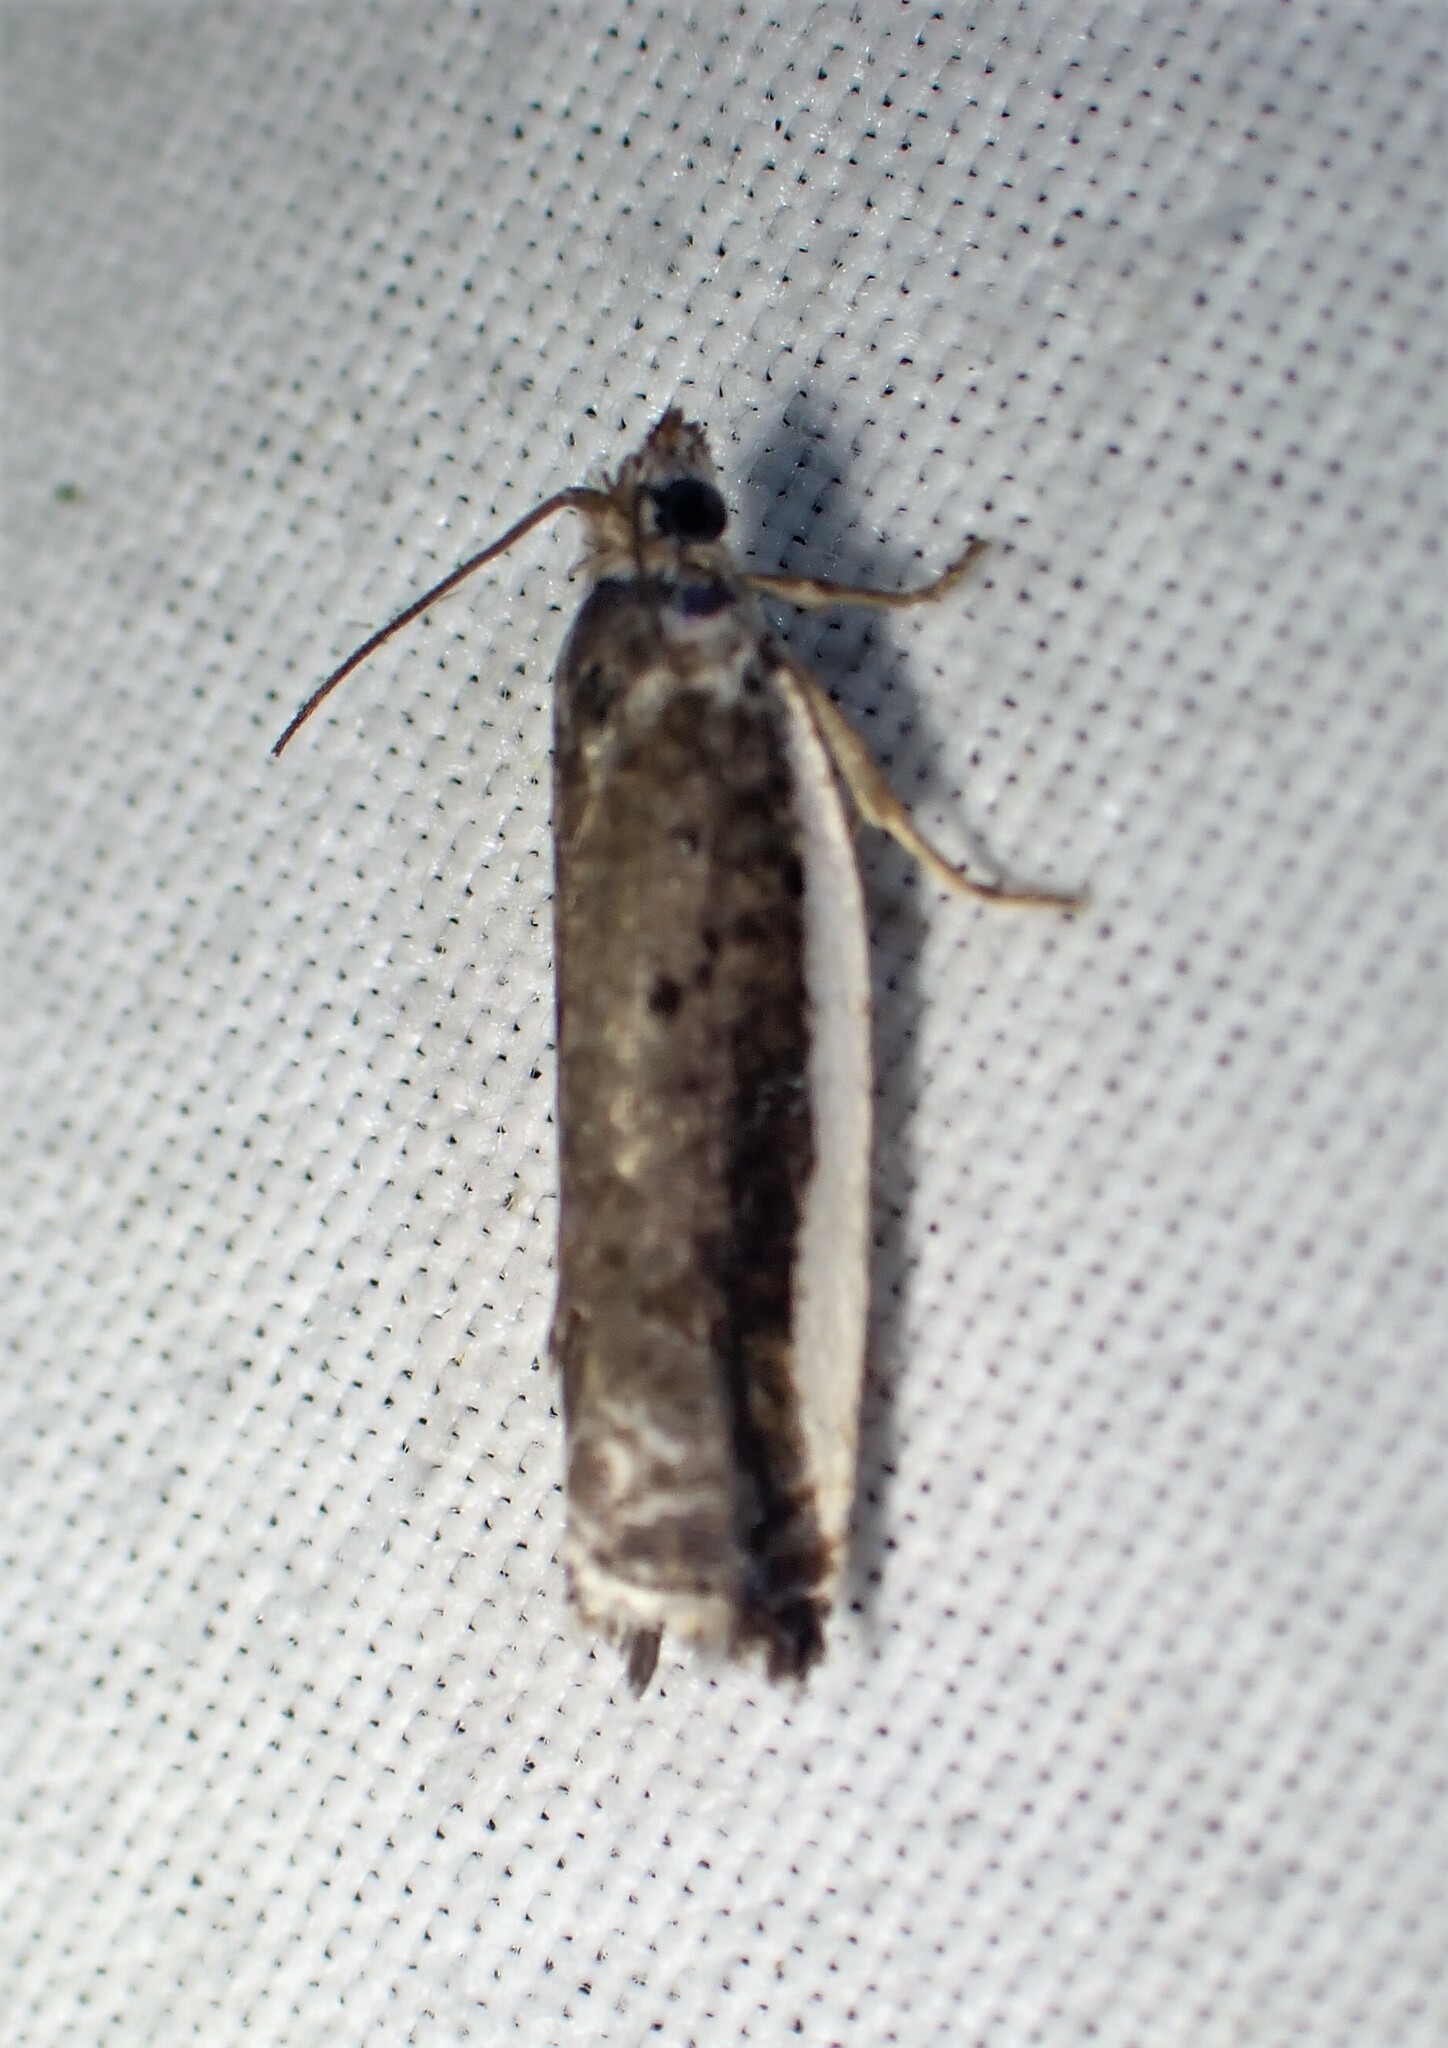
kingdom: Animalia
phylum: Arthropoda
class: Insecta
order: Lepidoptera
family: Tortricidae
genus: Ancylis
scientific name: Ancylis albacostana
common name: White-edged ancylis moth
